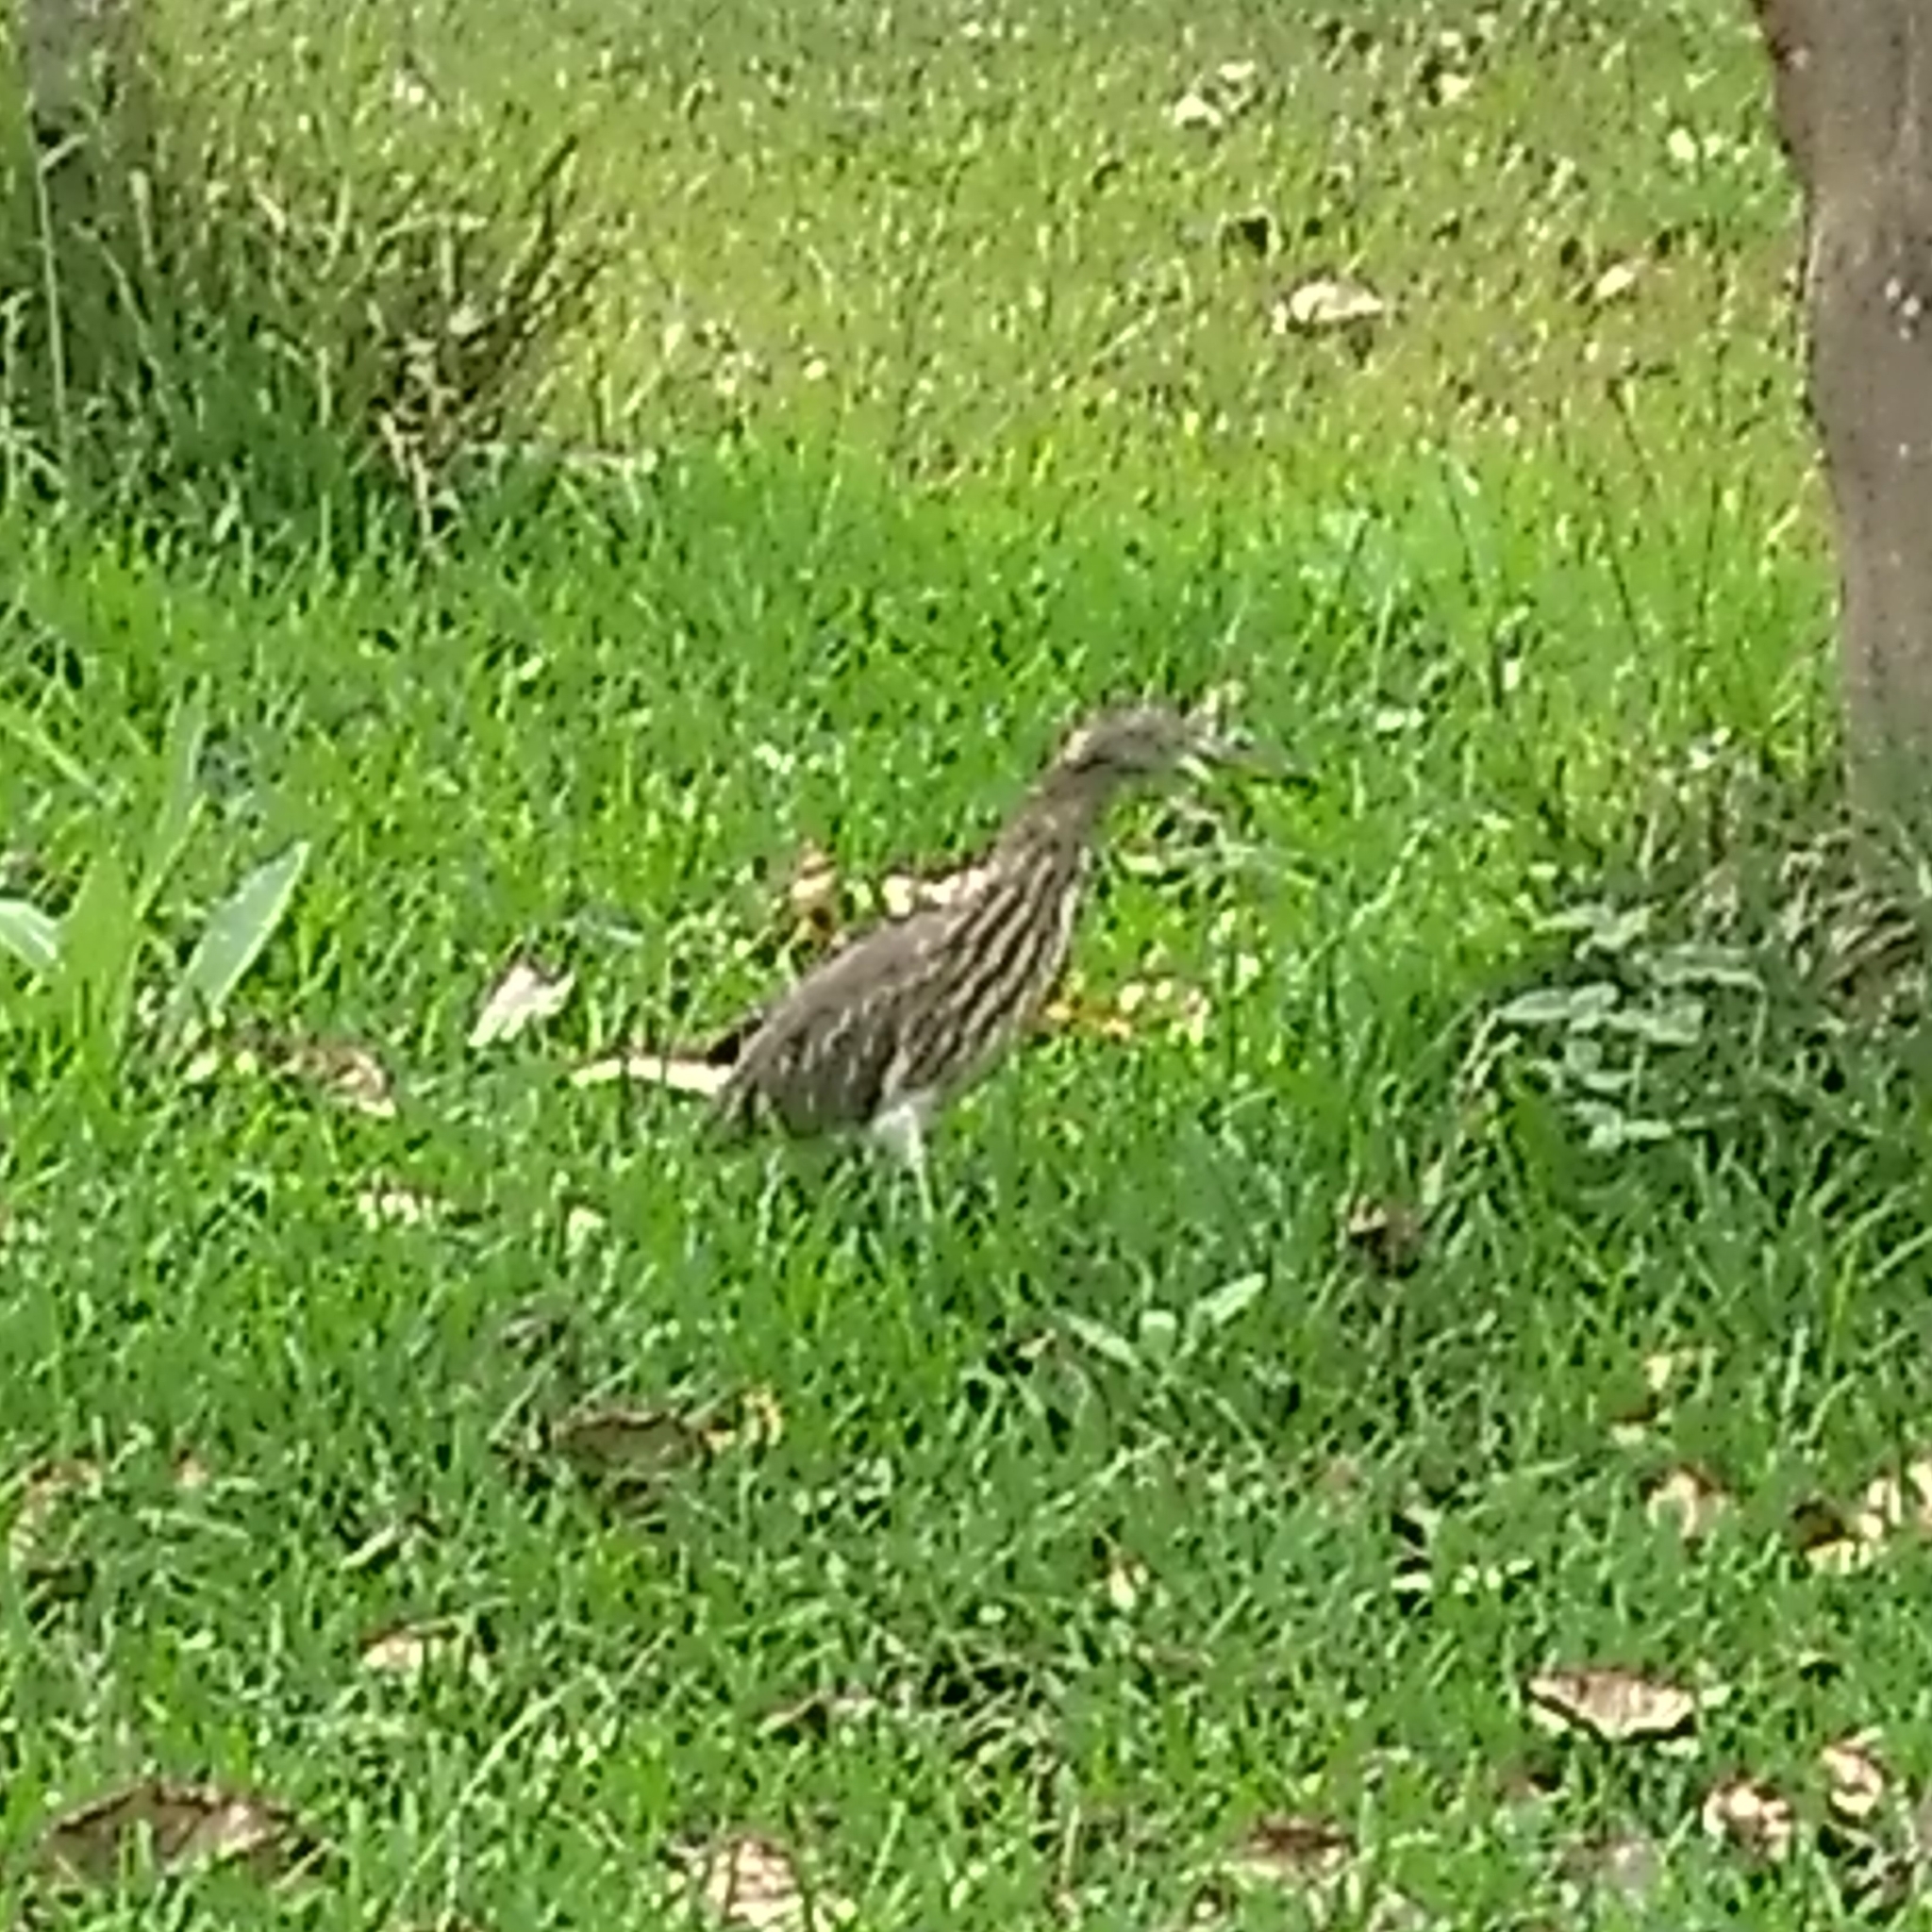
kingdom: Animalia
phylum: Chordata
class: Aves
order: Pelecaniformes
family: Ardeidae
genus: Ardeola
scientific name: Ardeola grayii
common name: Indian pond heron
